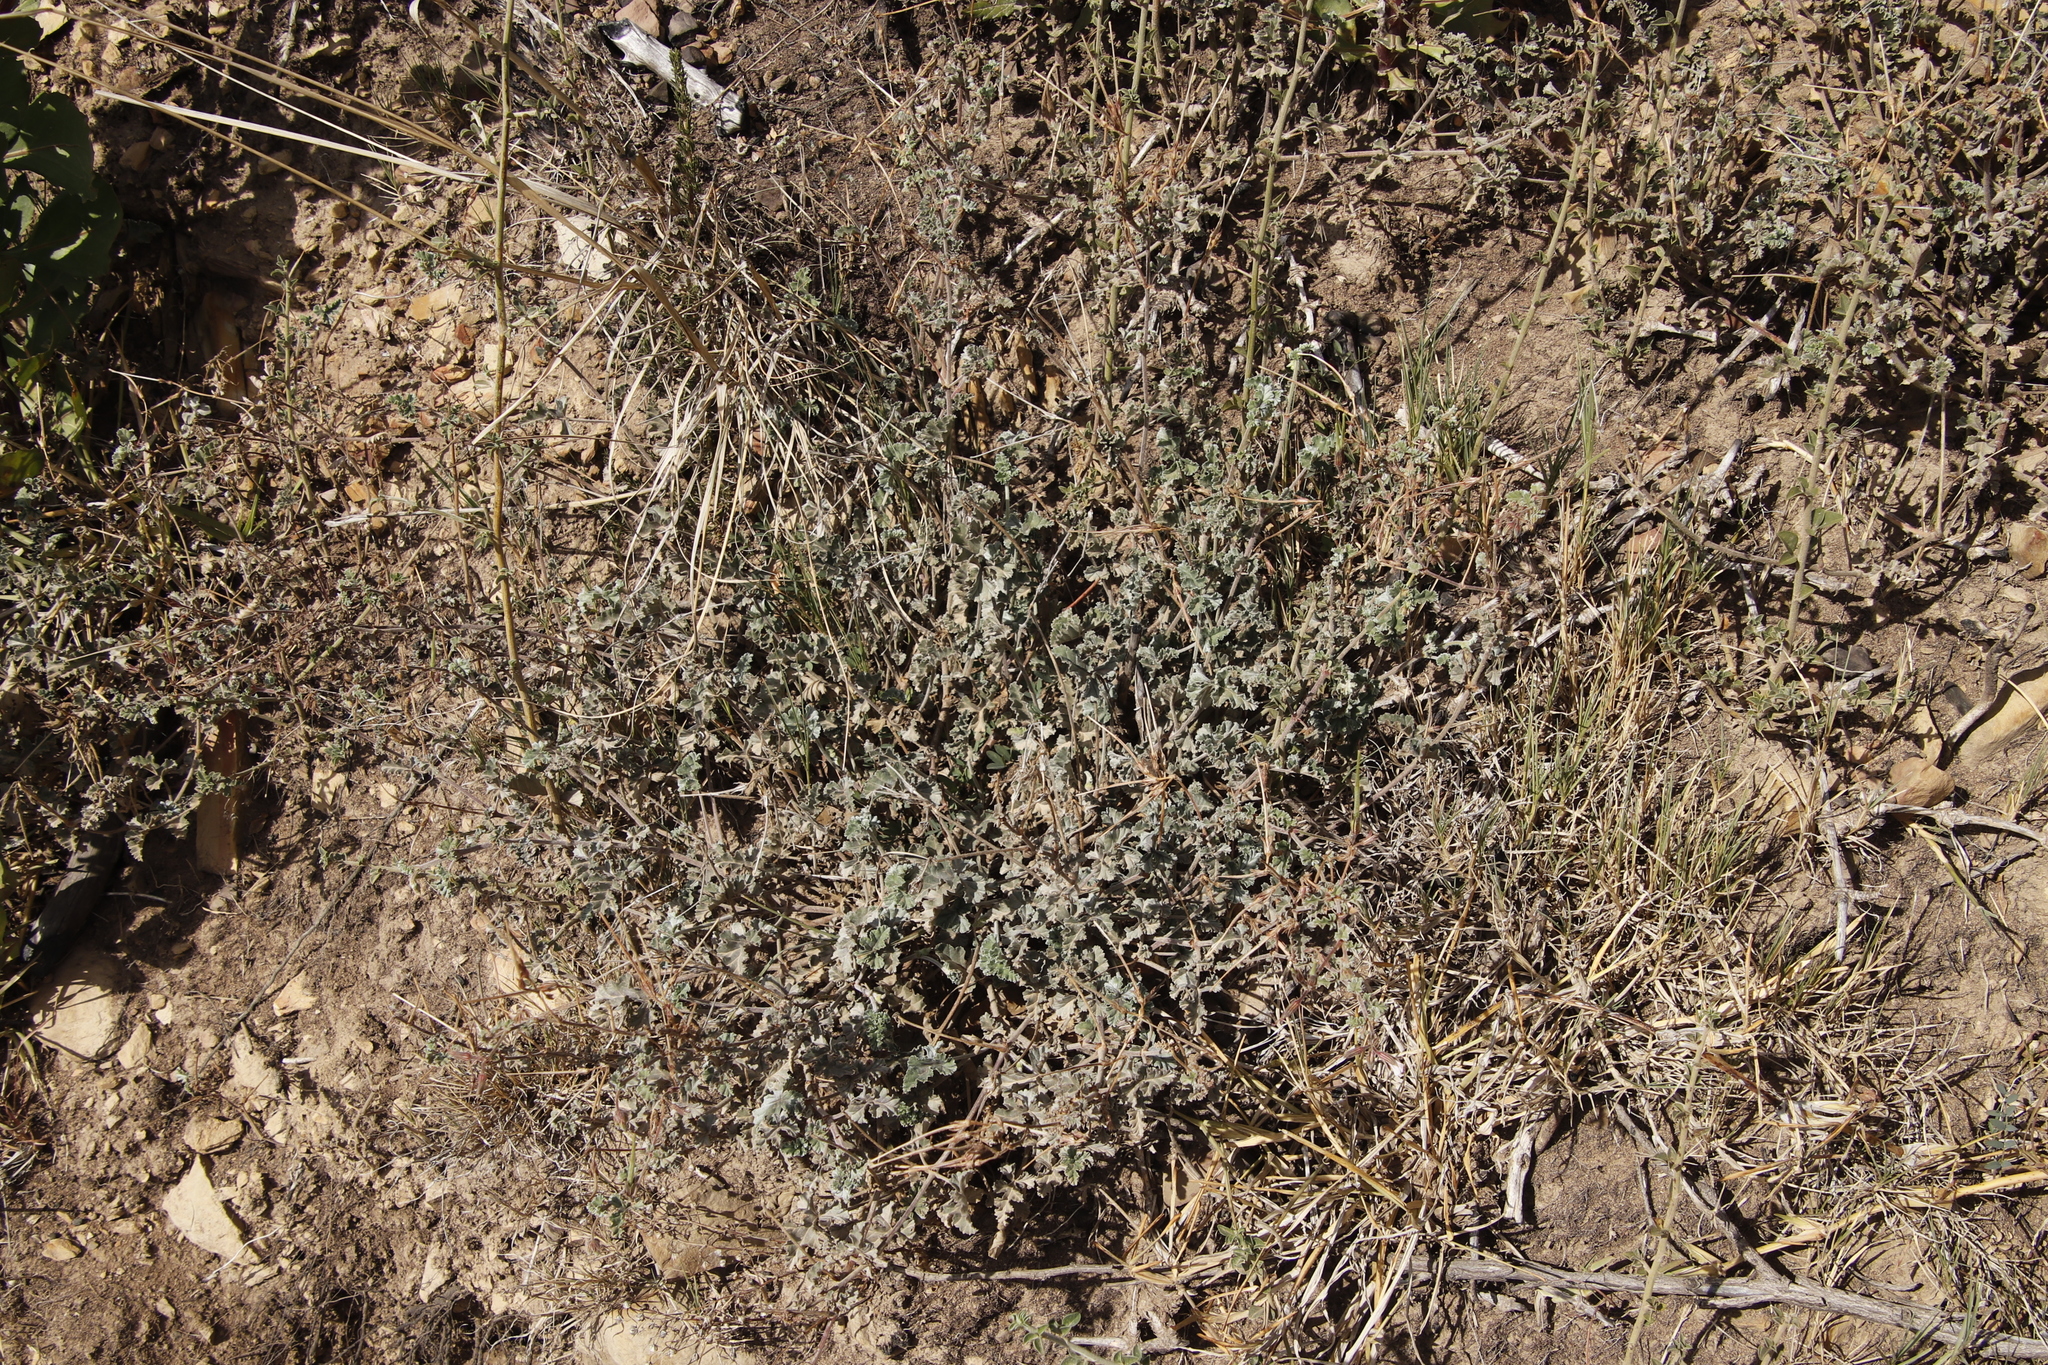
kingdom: Plantae
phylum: Tracheophyta
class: Magnoliopsida
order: Geraniales
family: Geraniaceae
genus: Pelargonium
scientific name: Pelargonium candicans
